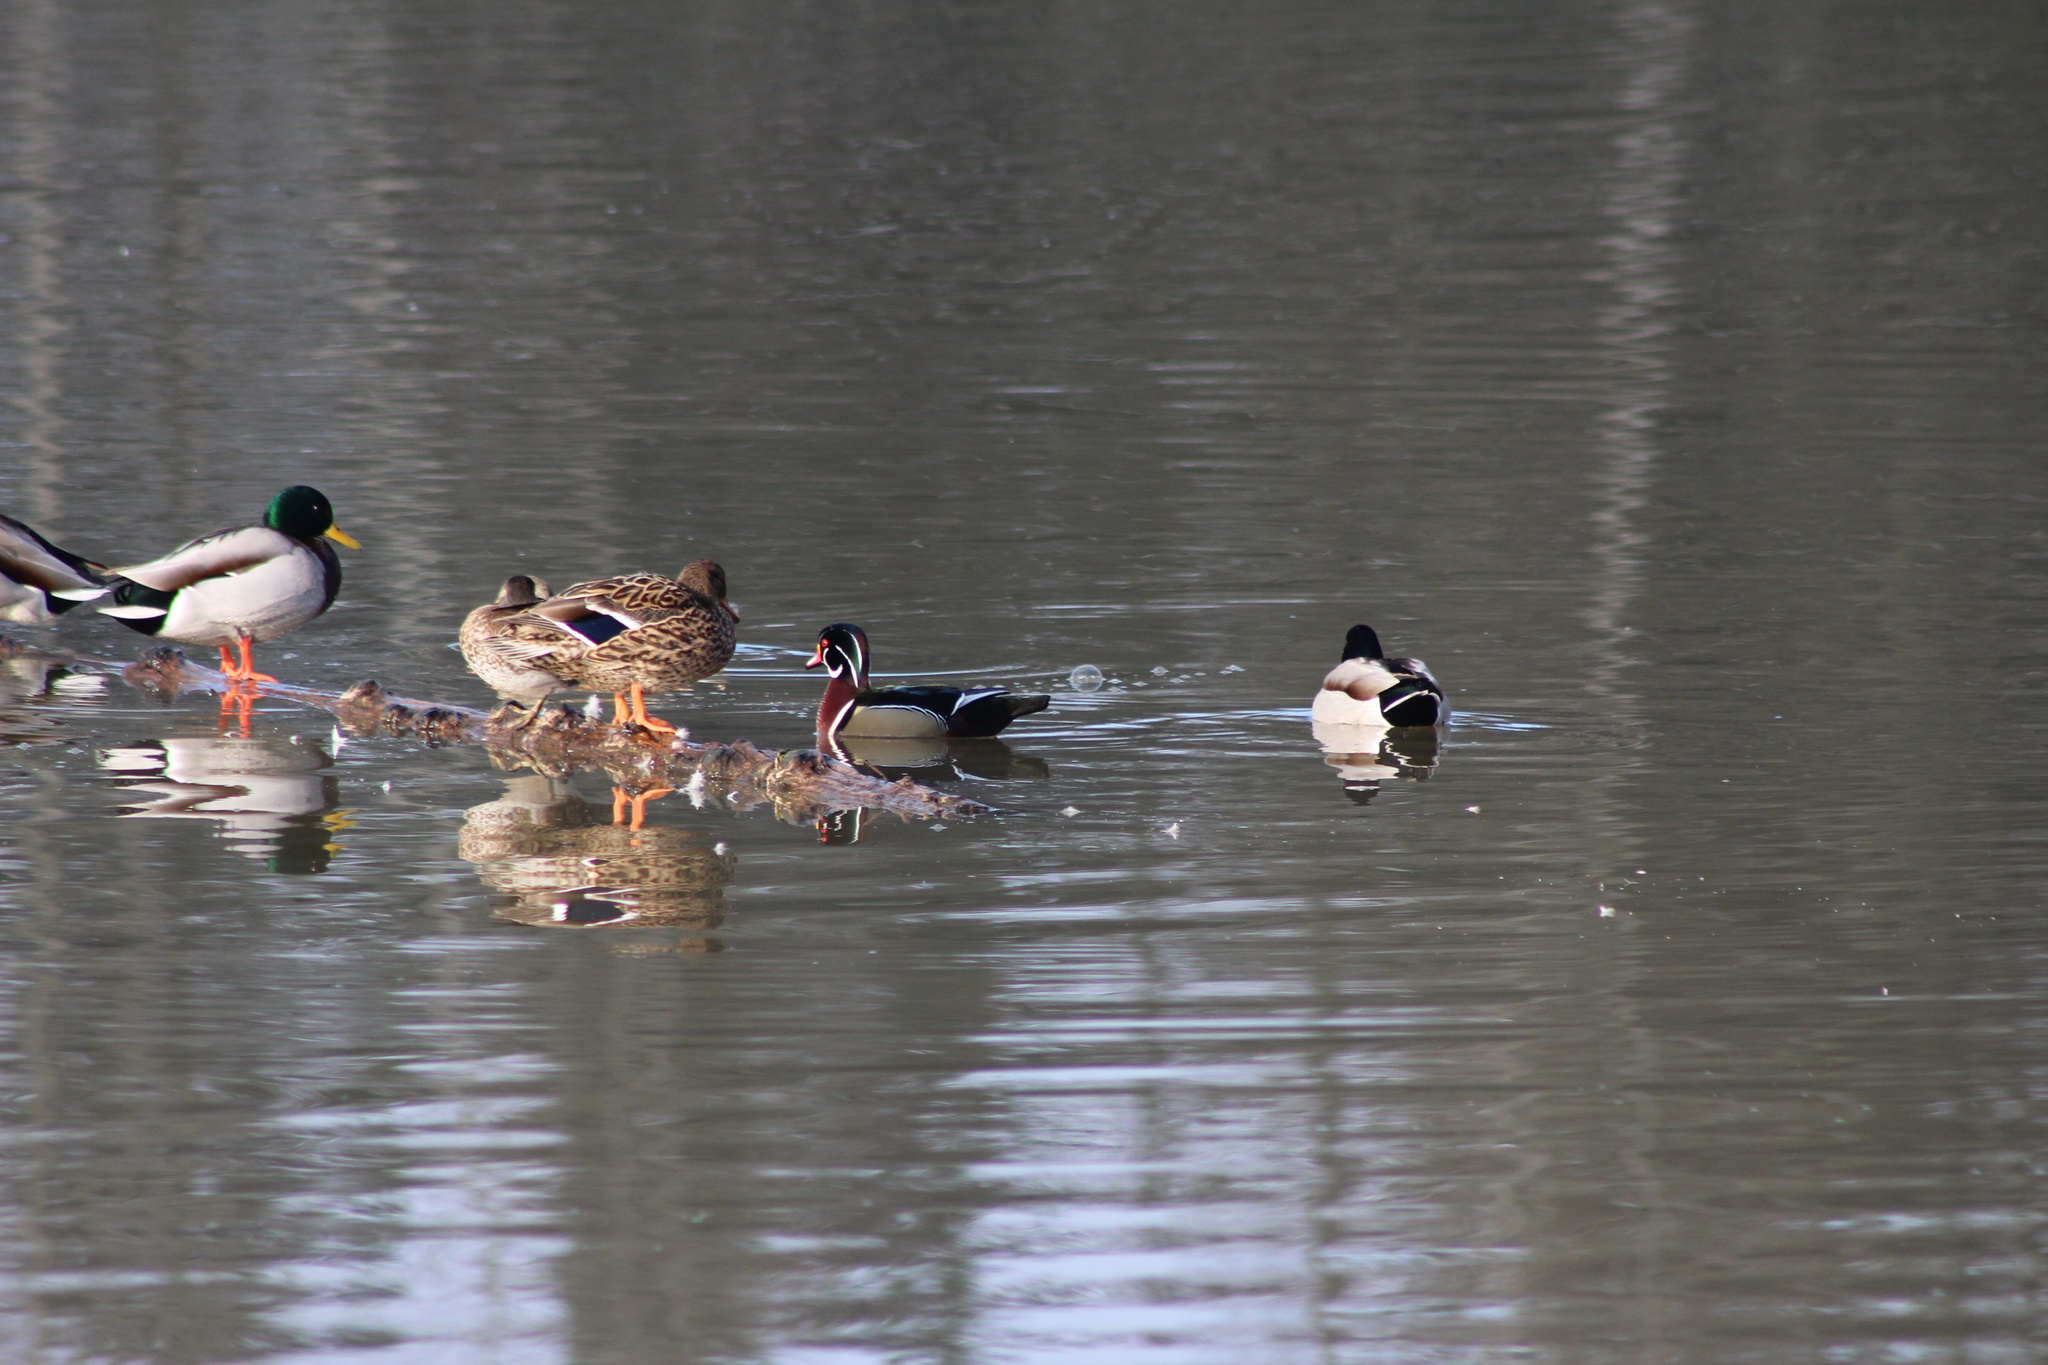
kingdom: Animalia
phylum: Chordata
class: Aves
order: Anseriformes
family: Anatidae
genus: Aix
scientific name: Aix sponsa
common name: Wood duck
